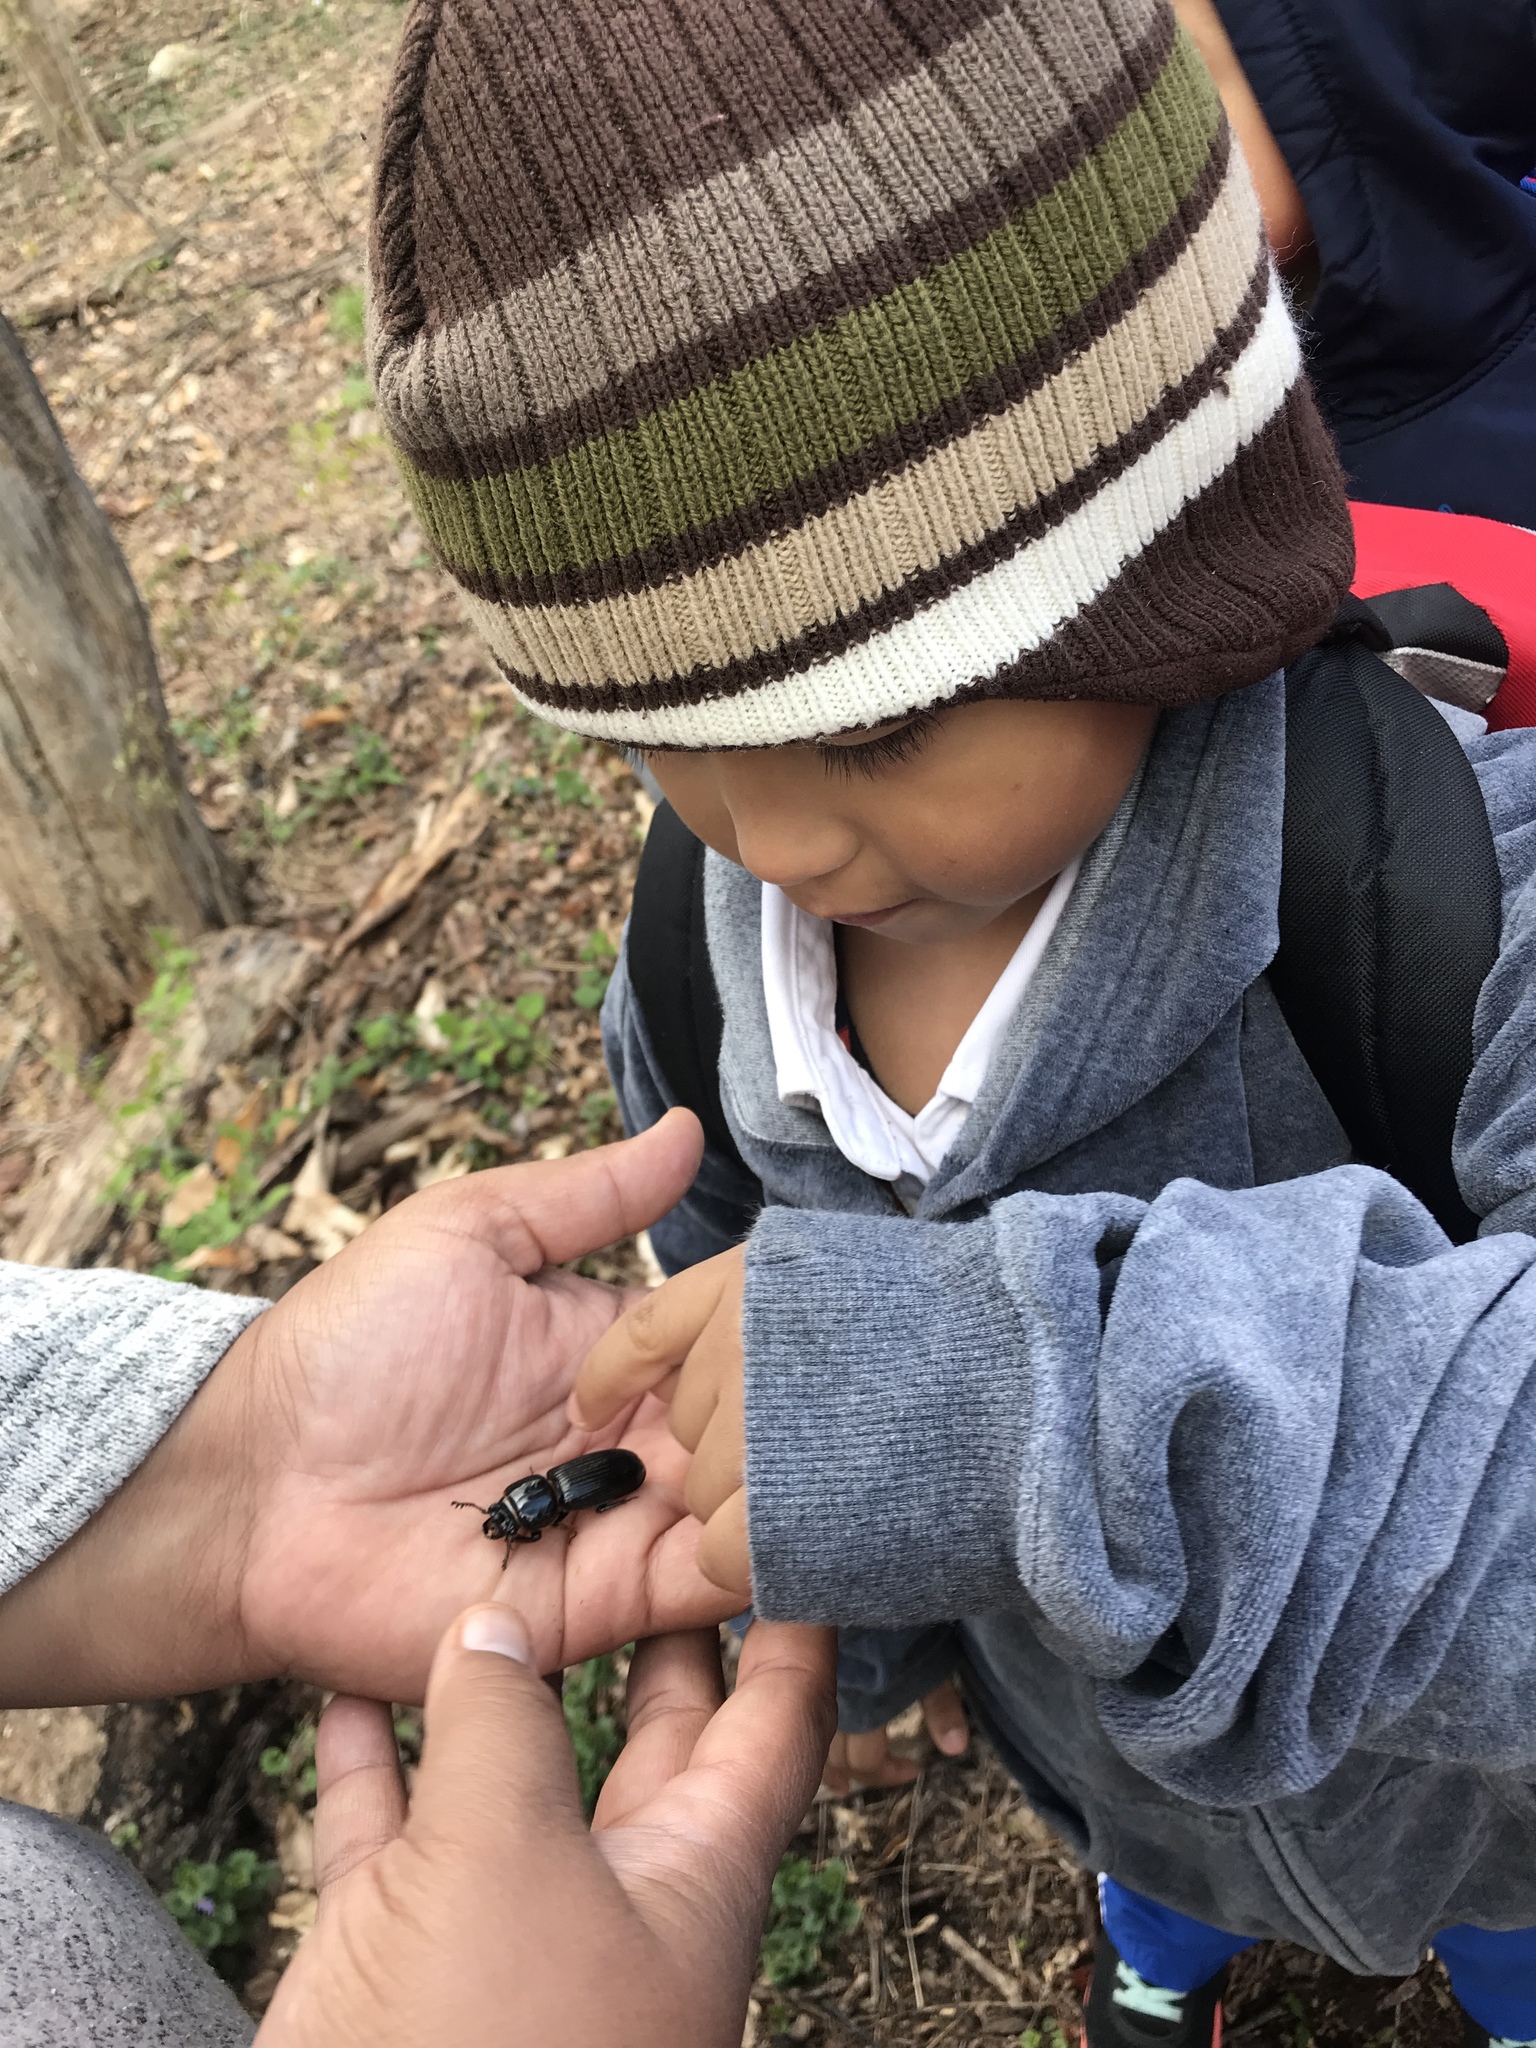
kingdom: Animalia
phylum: Arthropoda
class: Insecta
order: Coleoptera
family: Passalidae
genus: Odontotaenius
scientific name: Odontotaenius disjunctus
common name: Patent leather beetle
